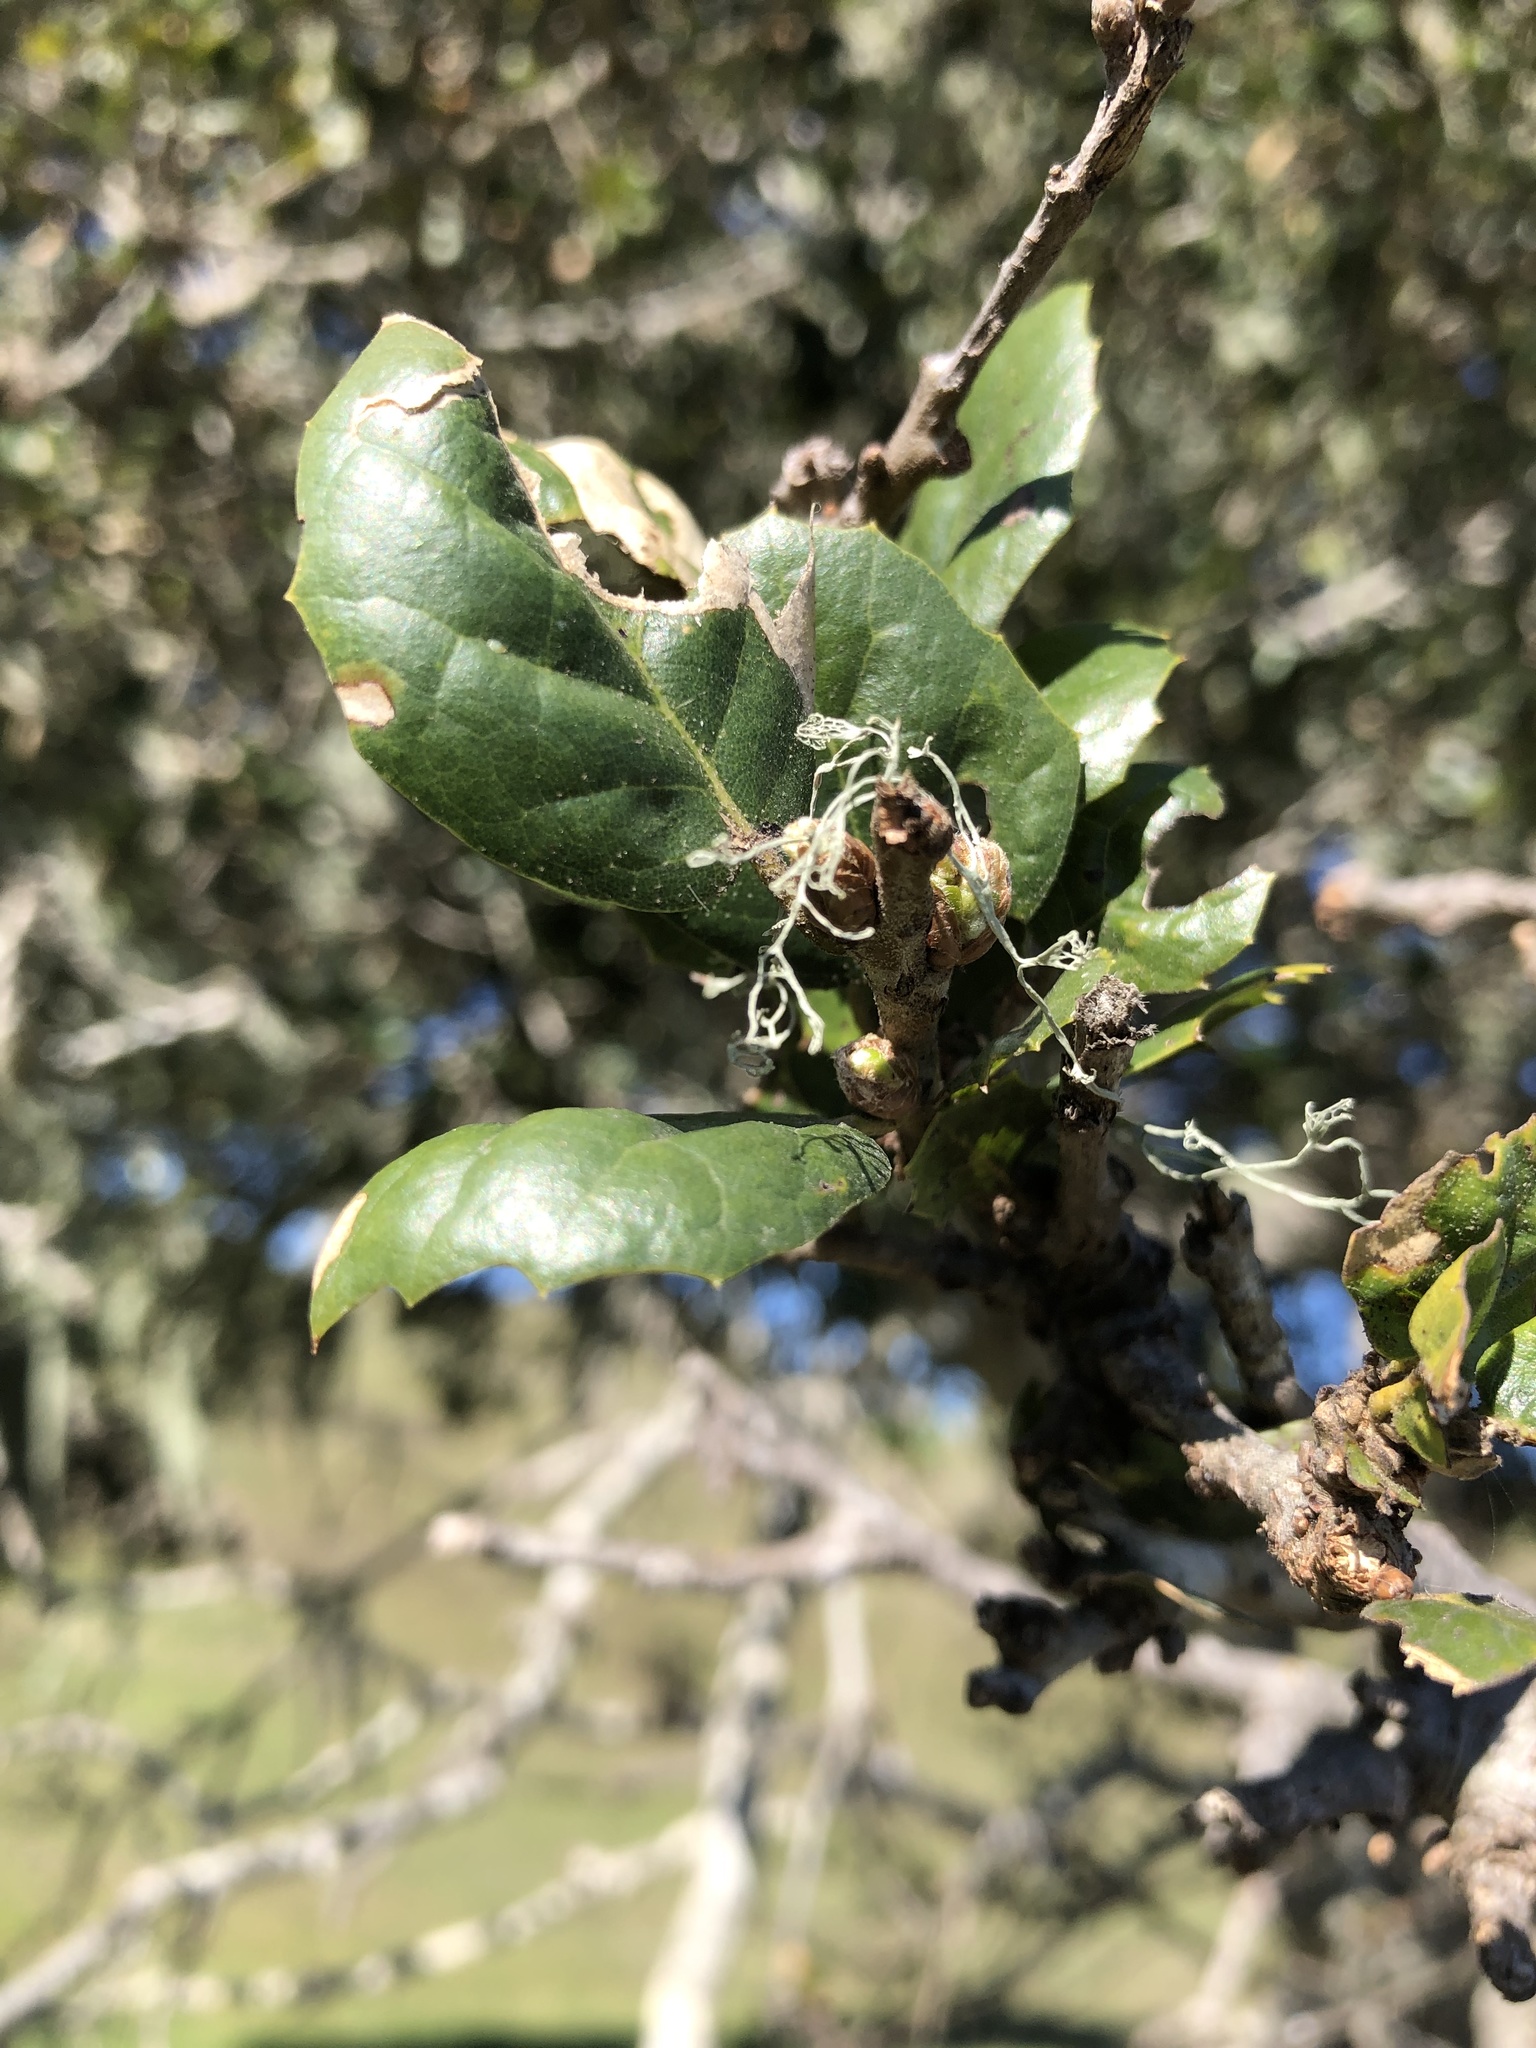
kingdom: Plantae
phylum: Tracheophyta
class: Magnoliopsida
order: Fagales
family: Fagaceae
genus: Quercus
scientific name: Quercus agrifolia
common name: California live oak
